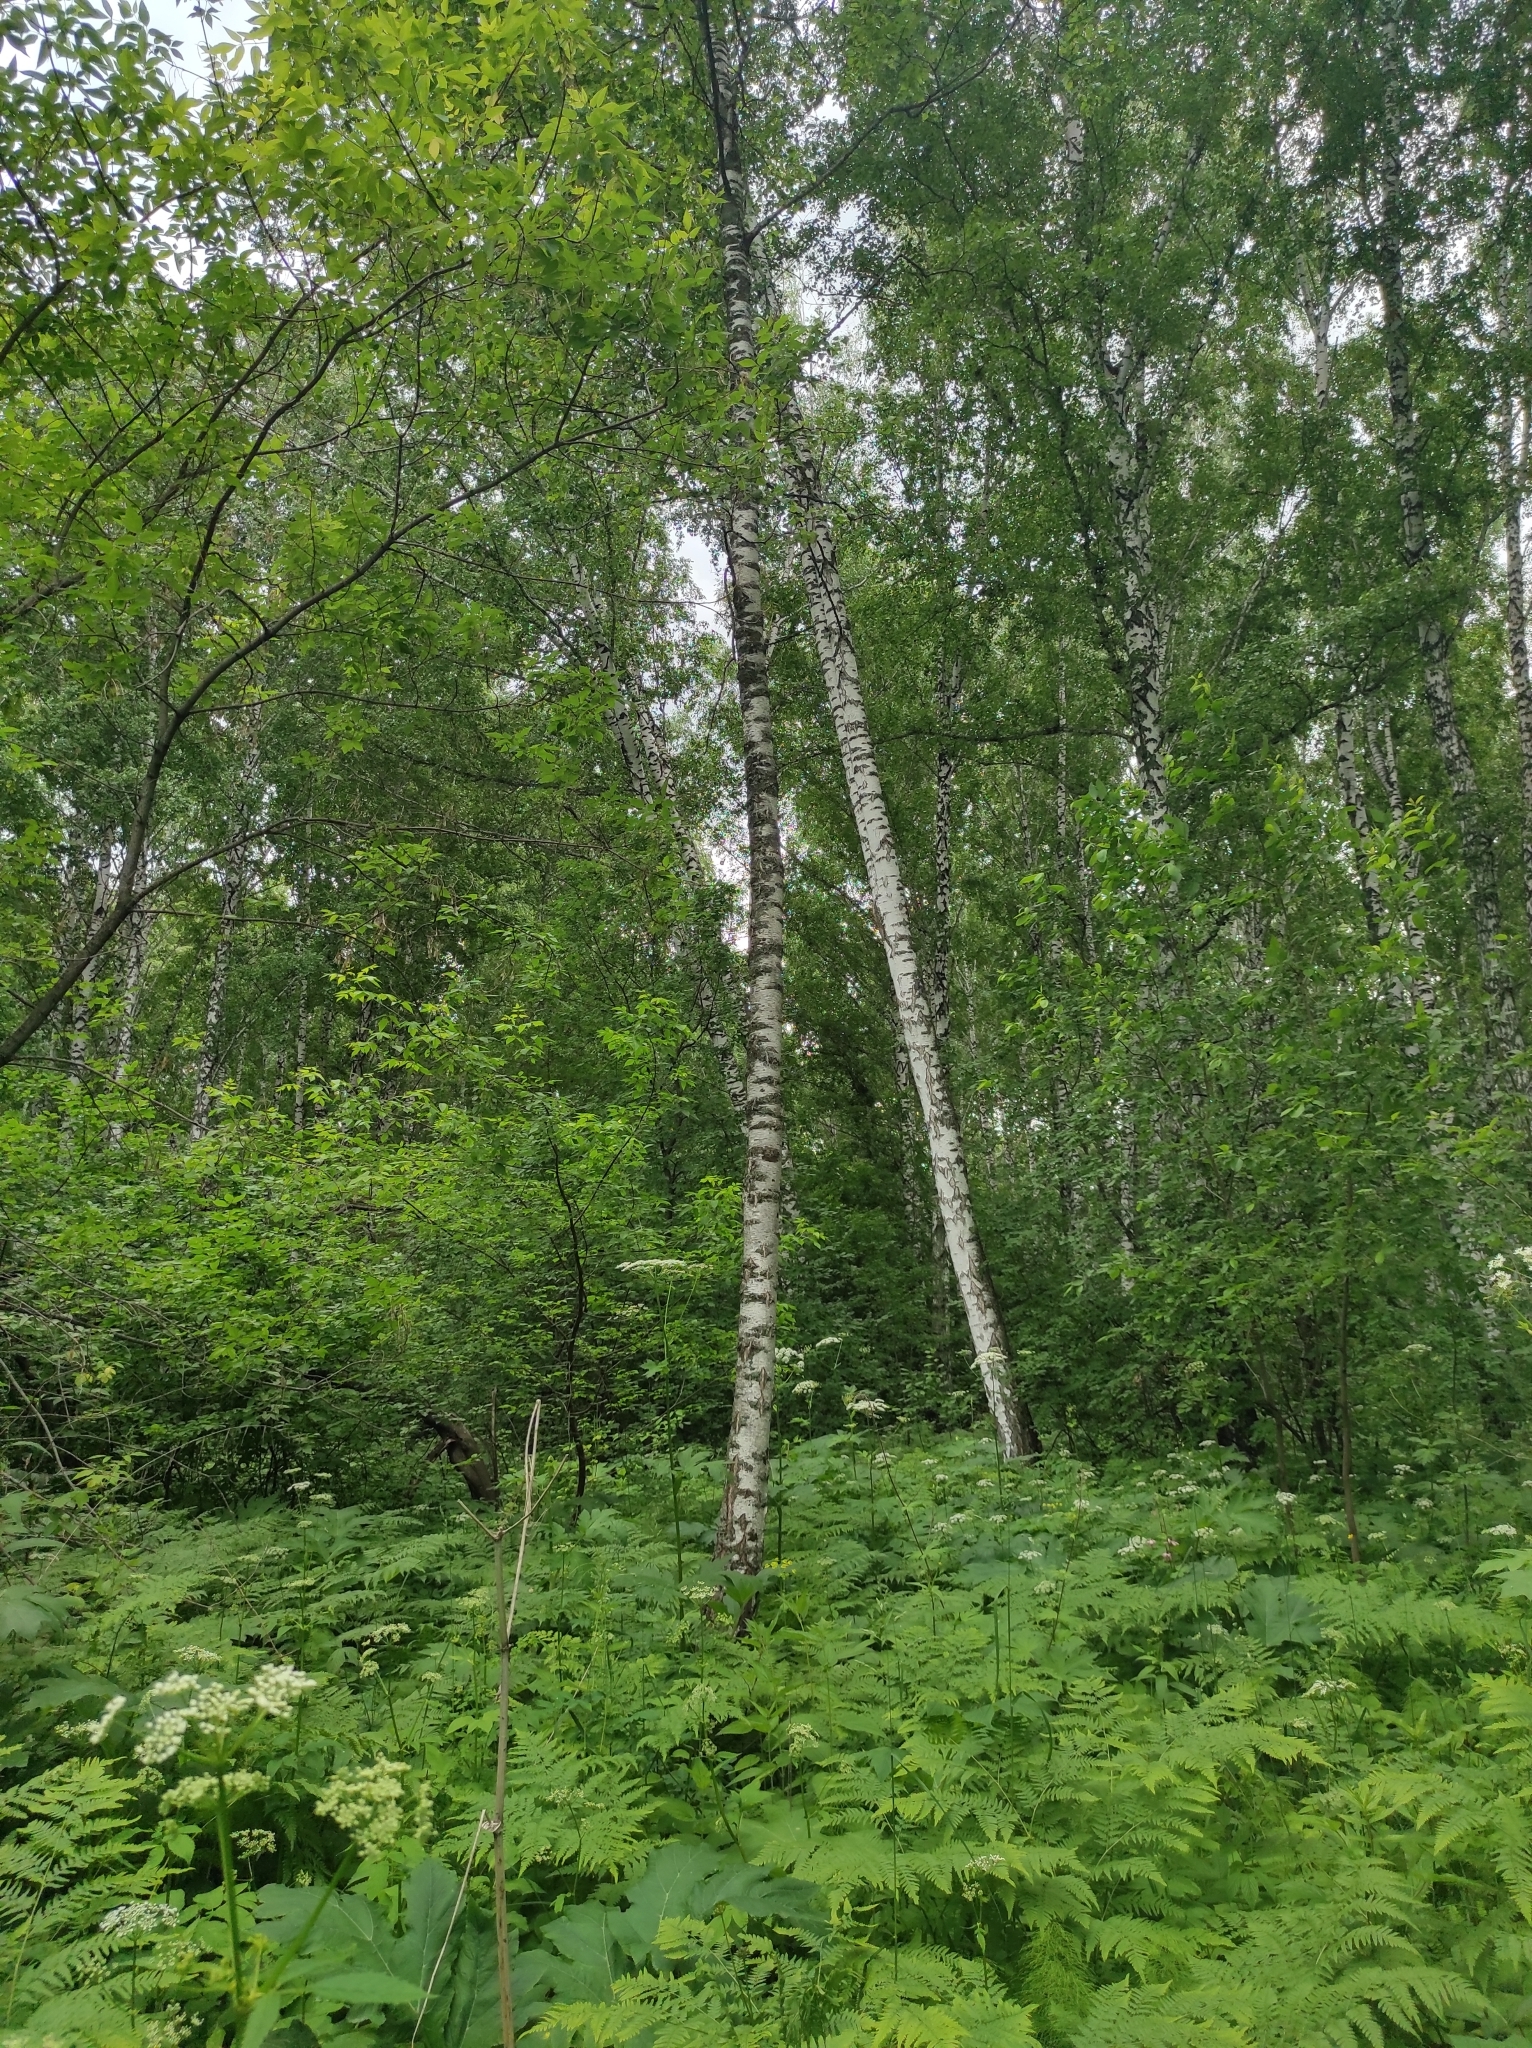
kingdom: Plantae
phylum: Tracheophyta
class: Magnoliopsida
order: Fagales
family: Betulaceae
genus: Betula
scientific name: Betula pendula
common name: Silver birch
